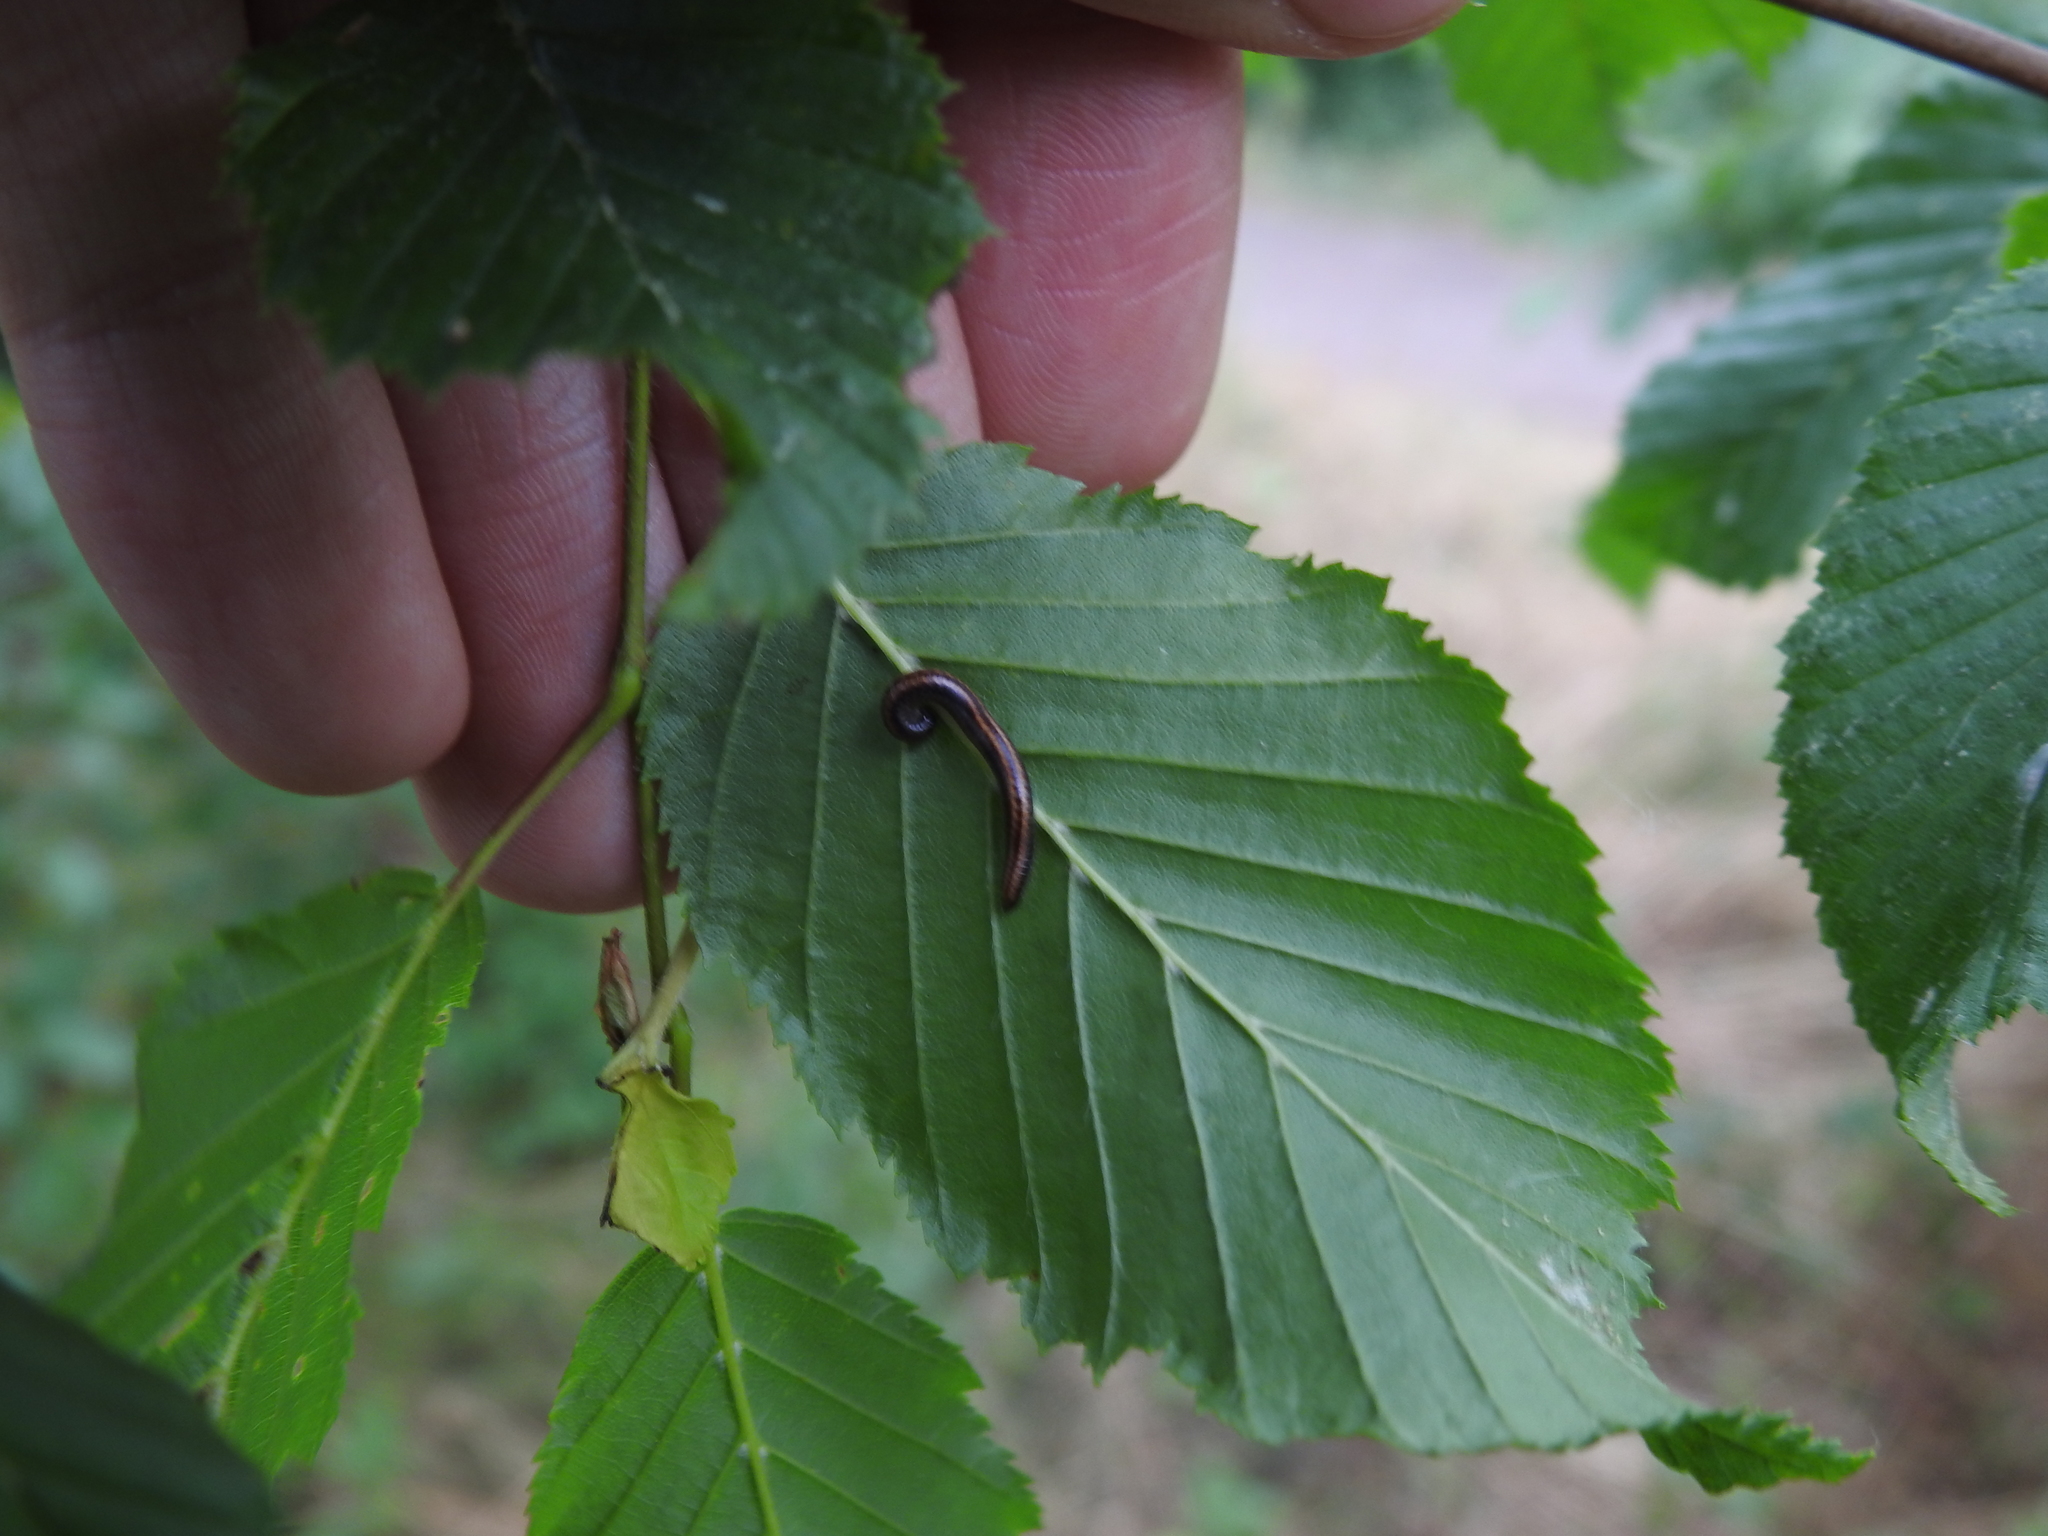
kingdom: Animalia
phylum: Arthropoda
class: Diplopoda
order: Julida
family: Julidae
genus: Ommatoiulus
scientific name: Ommatoiulus sabulosus
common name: Striped millipede
